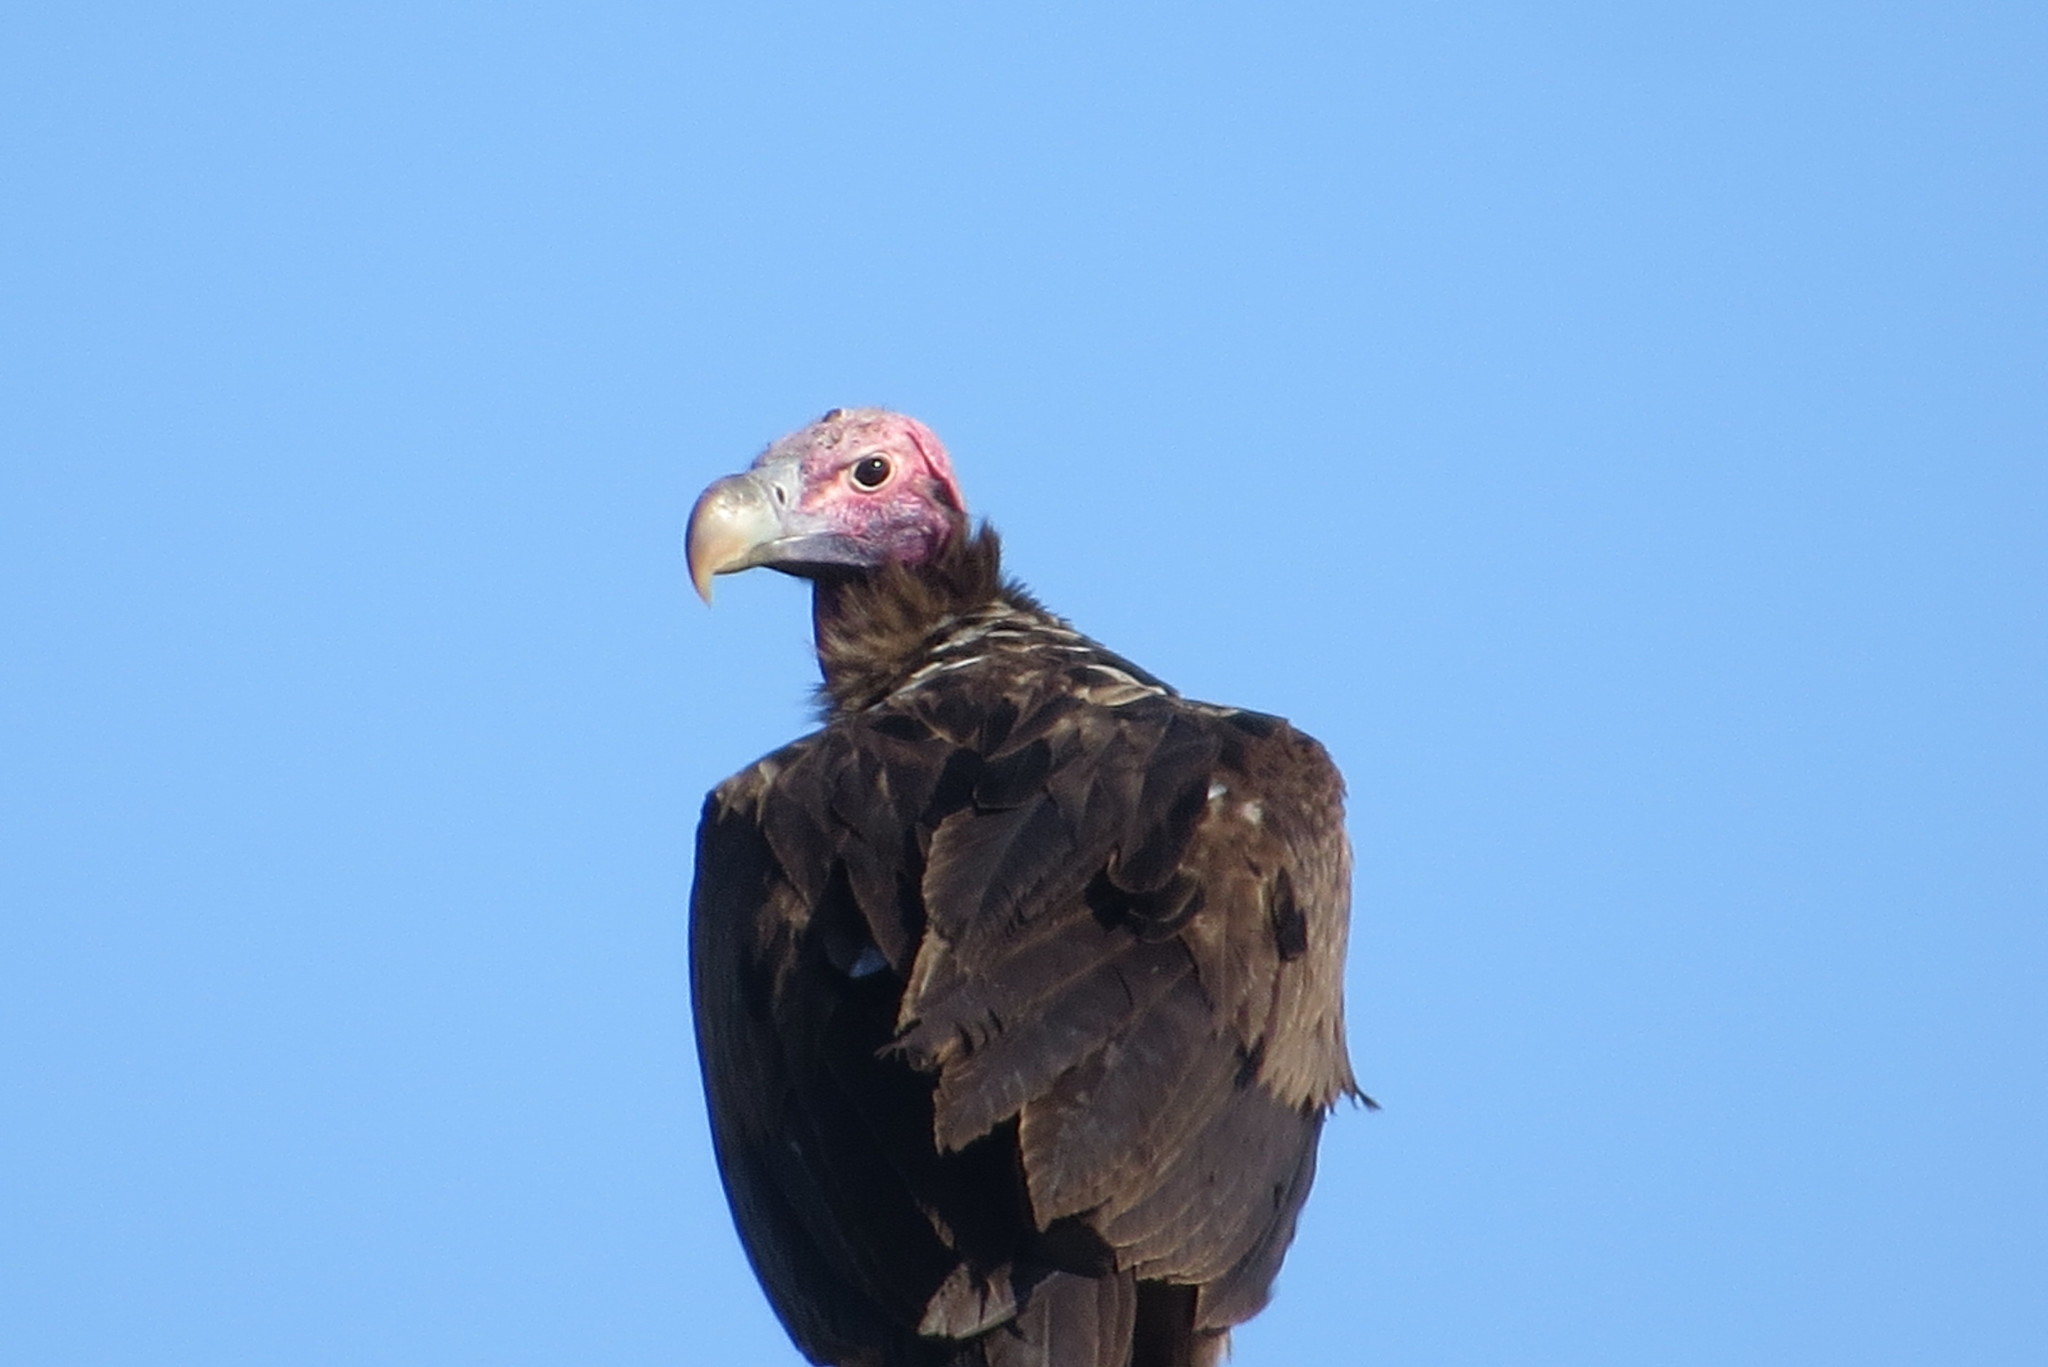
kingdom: Animalia
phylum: Chordata
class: Aves
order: Accipitriformes
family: Accipitridae
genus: Torgos
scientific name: Torgos tracheliotos
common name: Lappet-faced vulture
